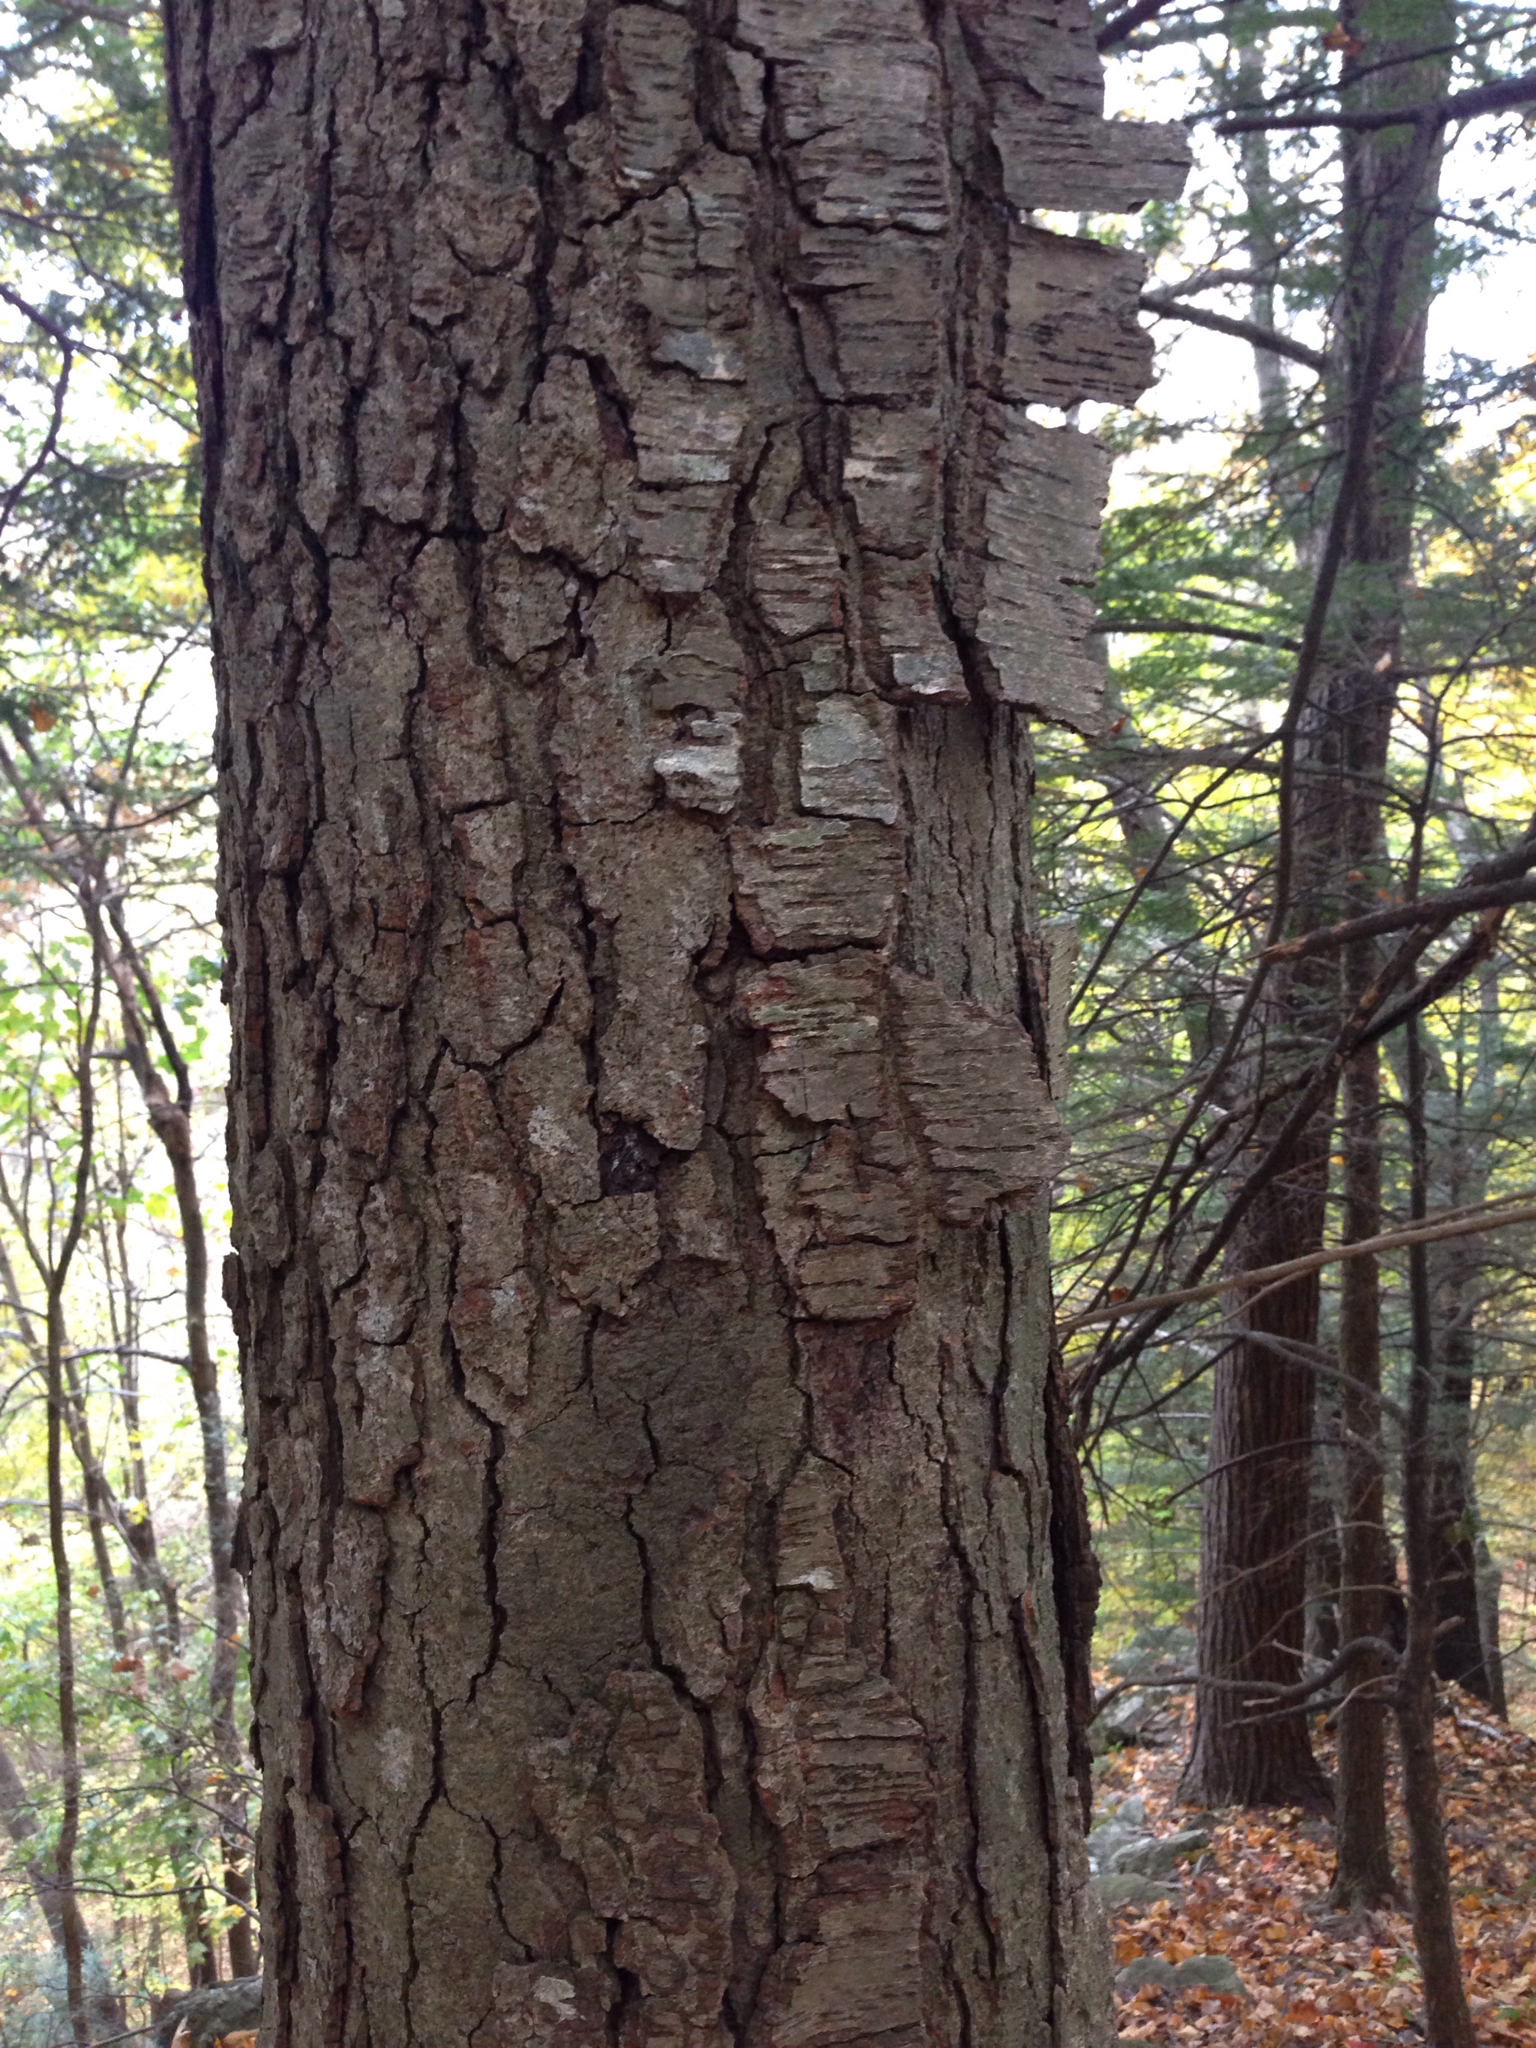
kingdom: Plantae
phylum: Tracheophyta
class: Magnoliopsida
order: Fagales
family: Betulaceae
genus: Betula
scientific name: Betula lenta
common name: Black birch
